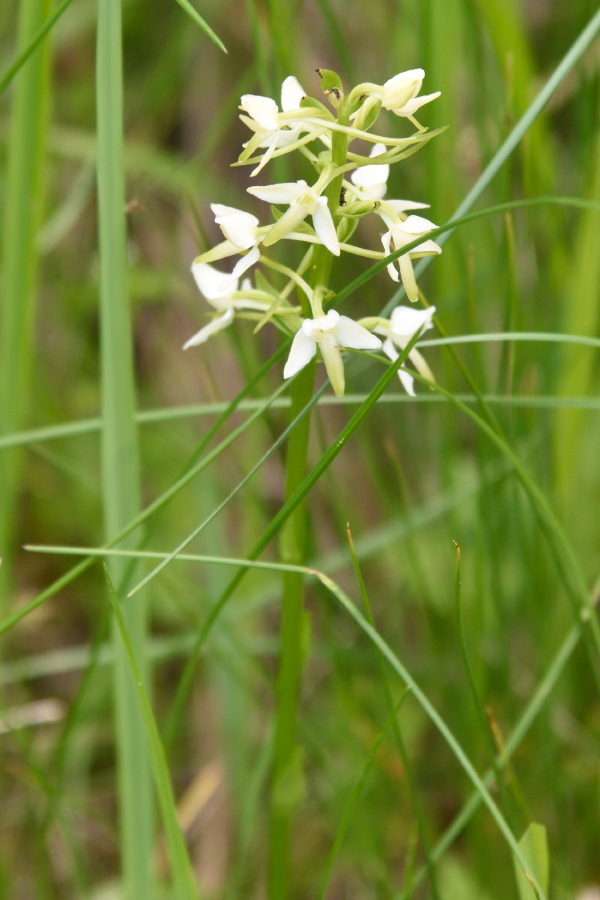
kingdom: Plantae
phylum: Tracheophyta
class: Liliopsida
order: Asparagales
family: Orchidaceae
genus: Platanthera
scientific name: Platanthera bifolia
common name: Lesser butterfly-orchid
